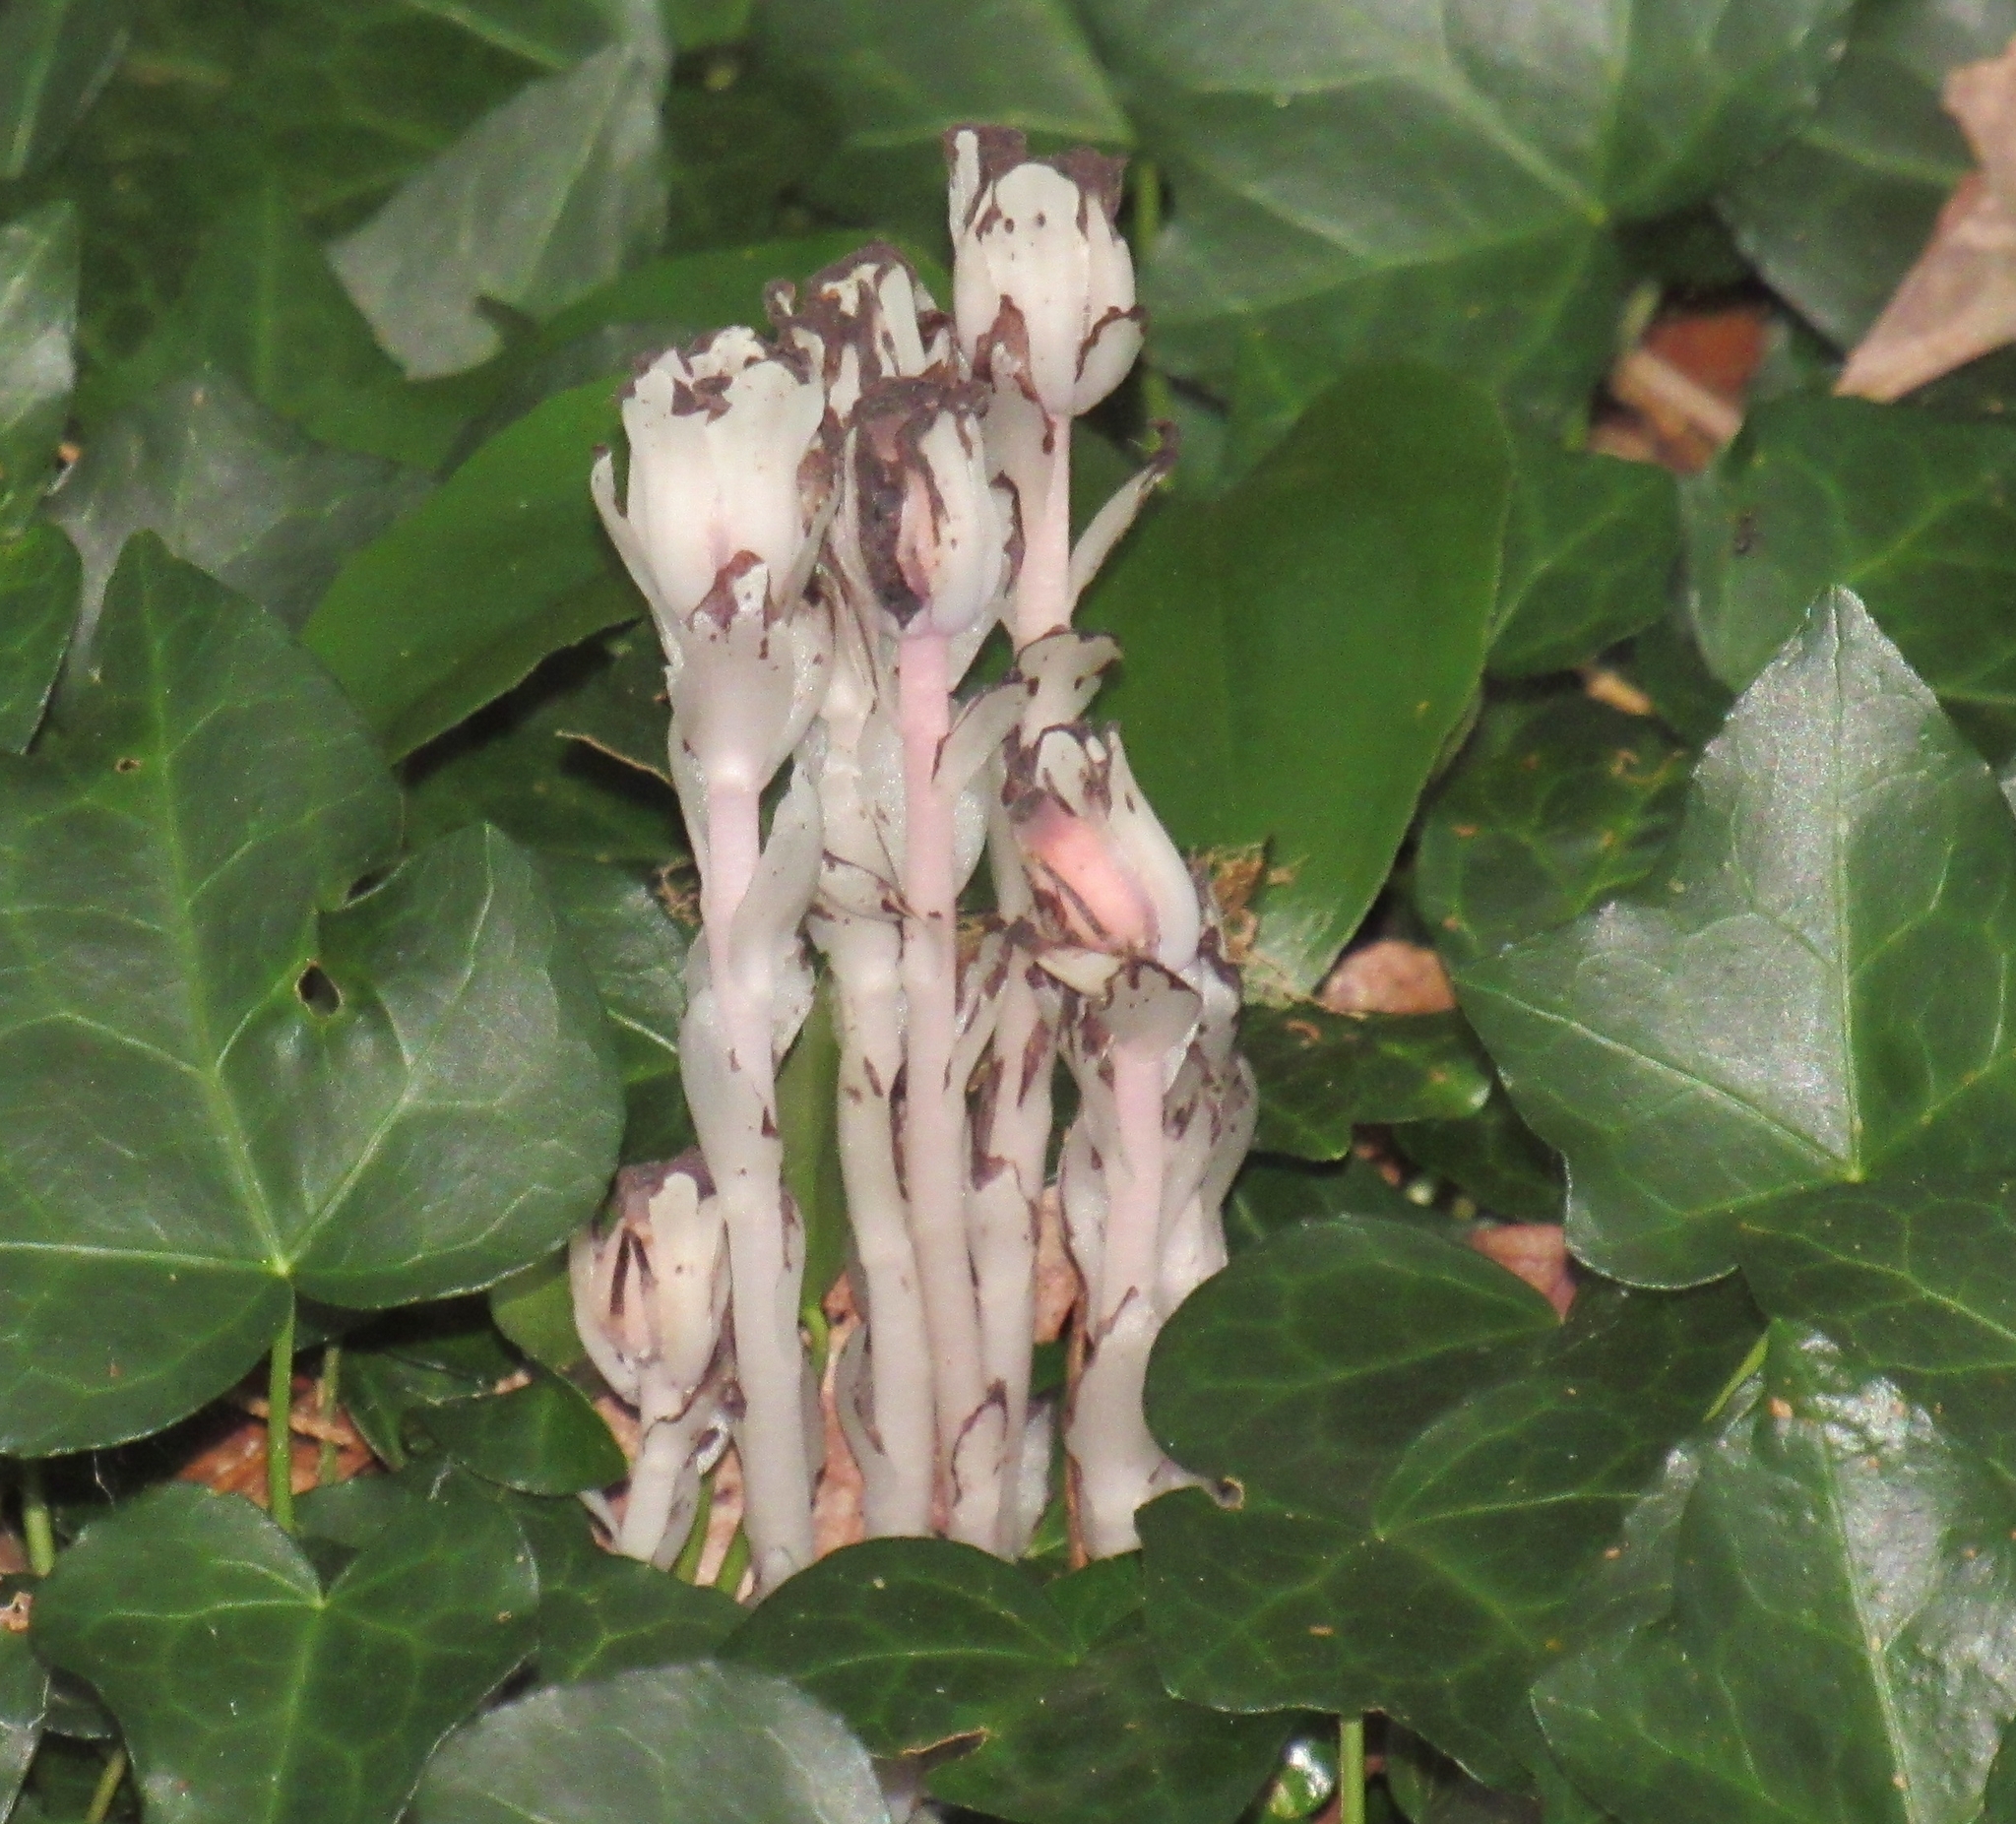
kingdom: Plantae
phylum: Tracheophyta
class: Magnoliopsida
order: Ericales
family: Ericaceae
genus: Monotropa
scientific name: Monotropa uniflora
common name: Convulsion root
